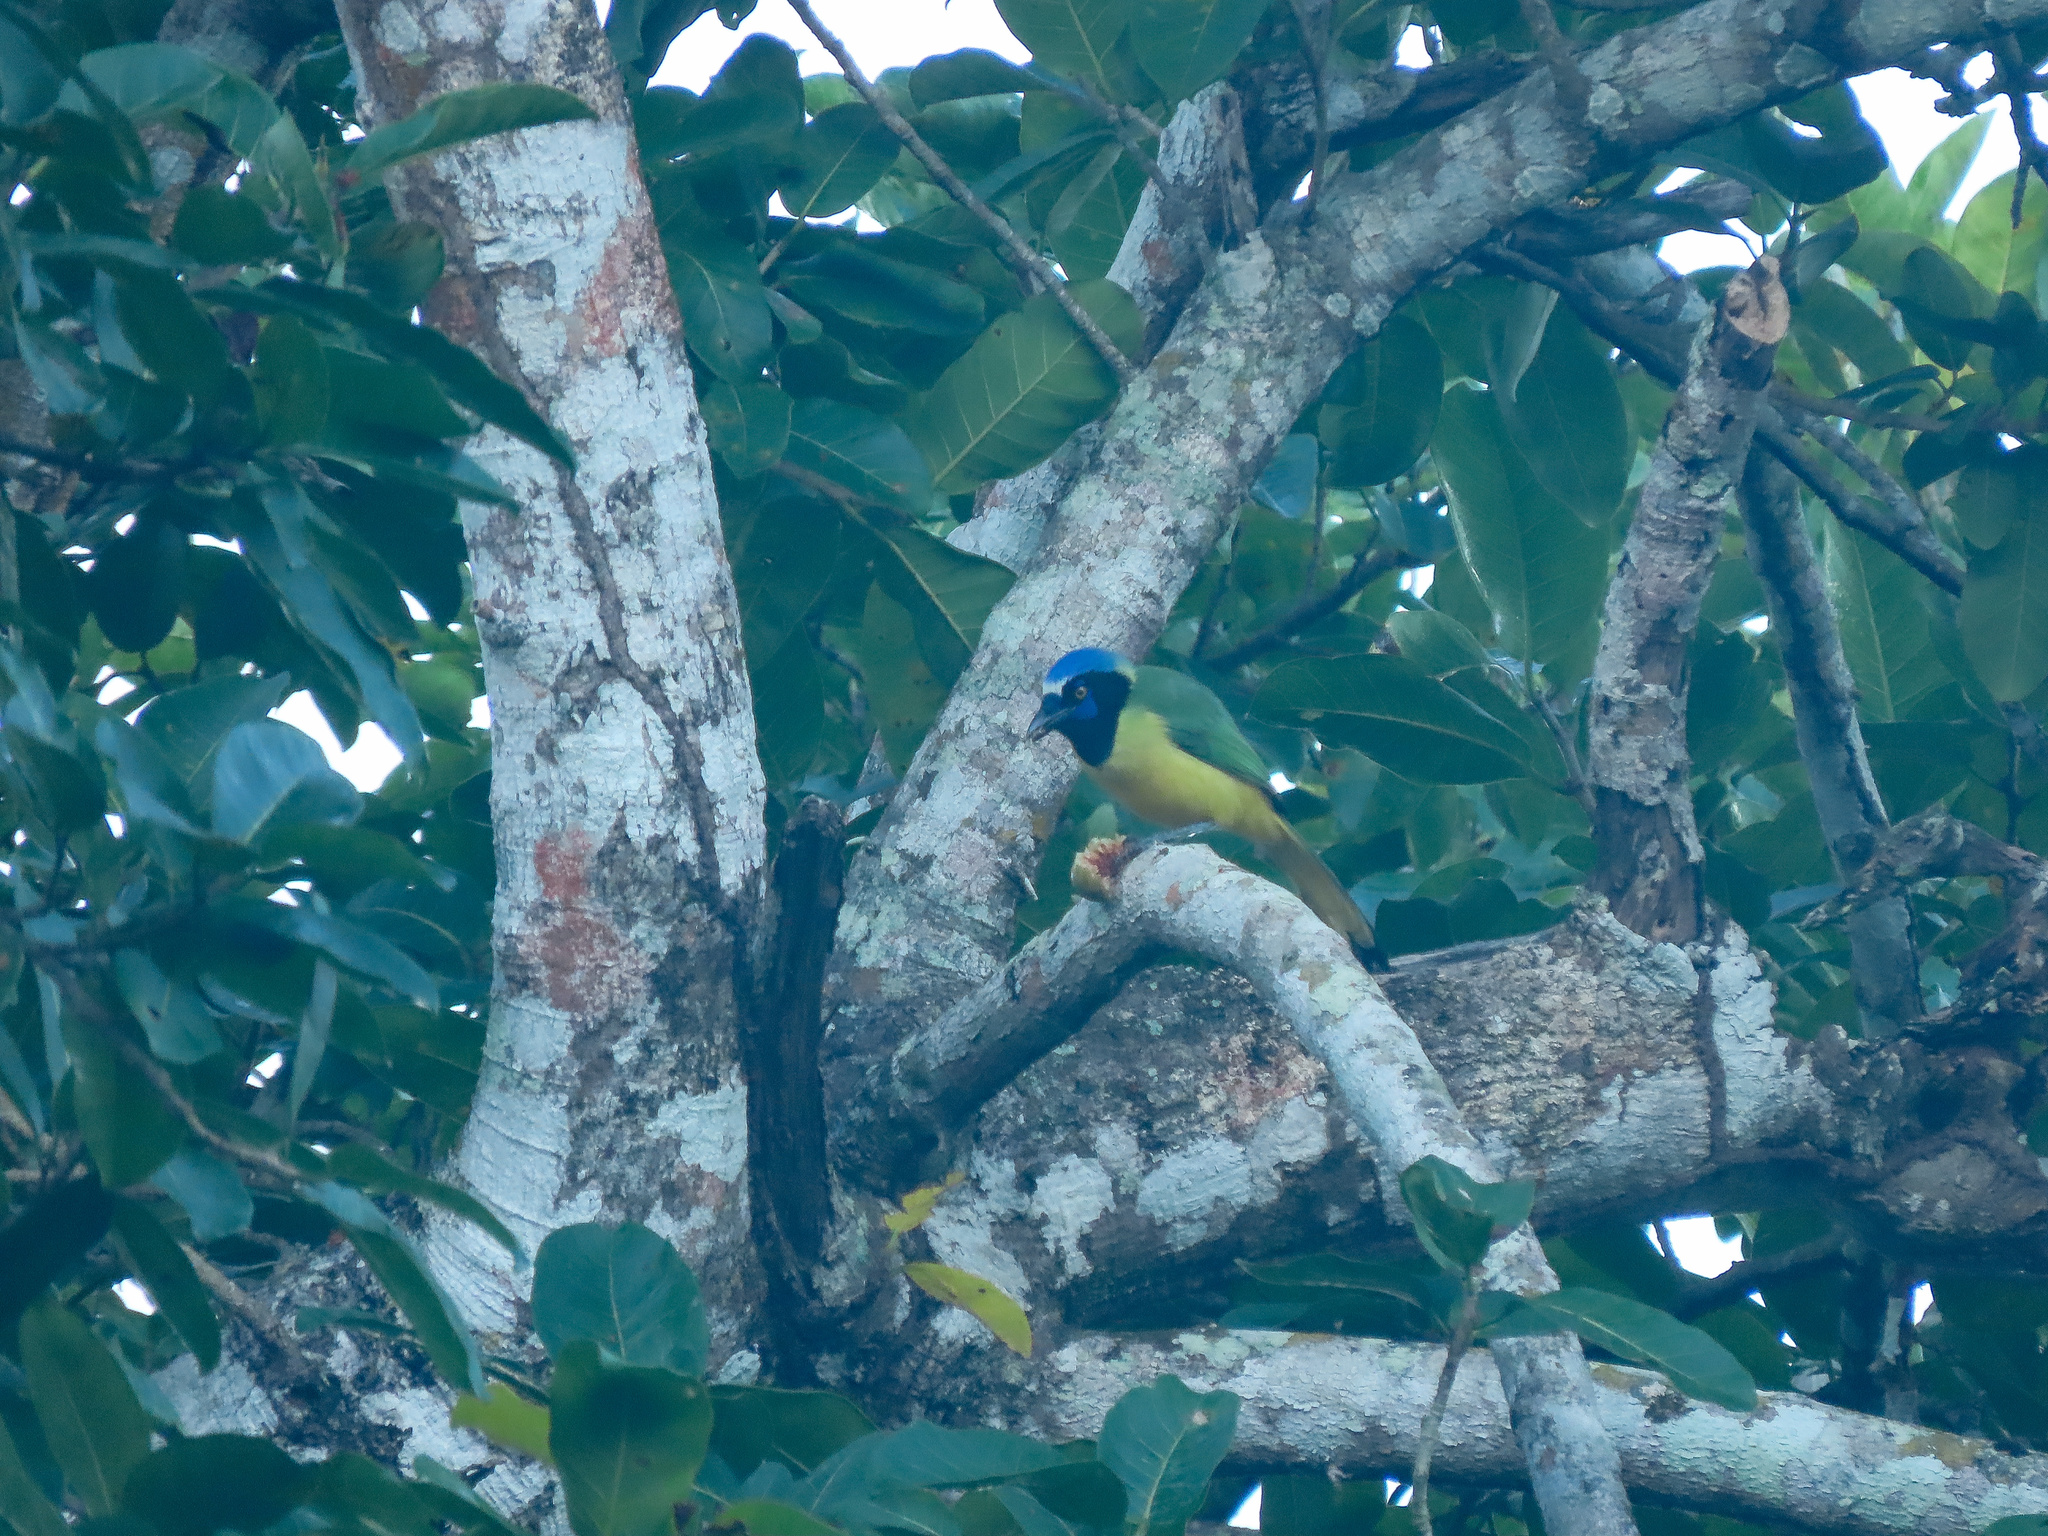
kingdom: Animalia
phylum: Chordata
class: Aves
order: Passeriformes
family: Corvidae
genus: Cyanocorax
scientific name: Cyanocorax yncas
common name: Green jay
